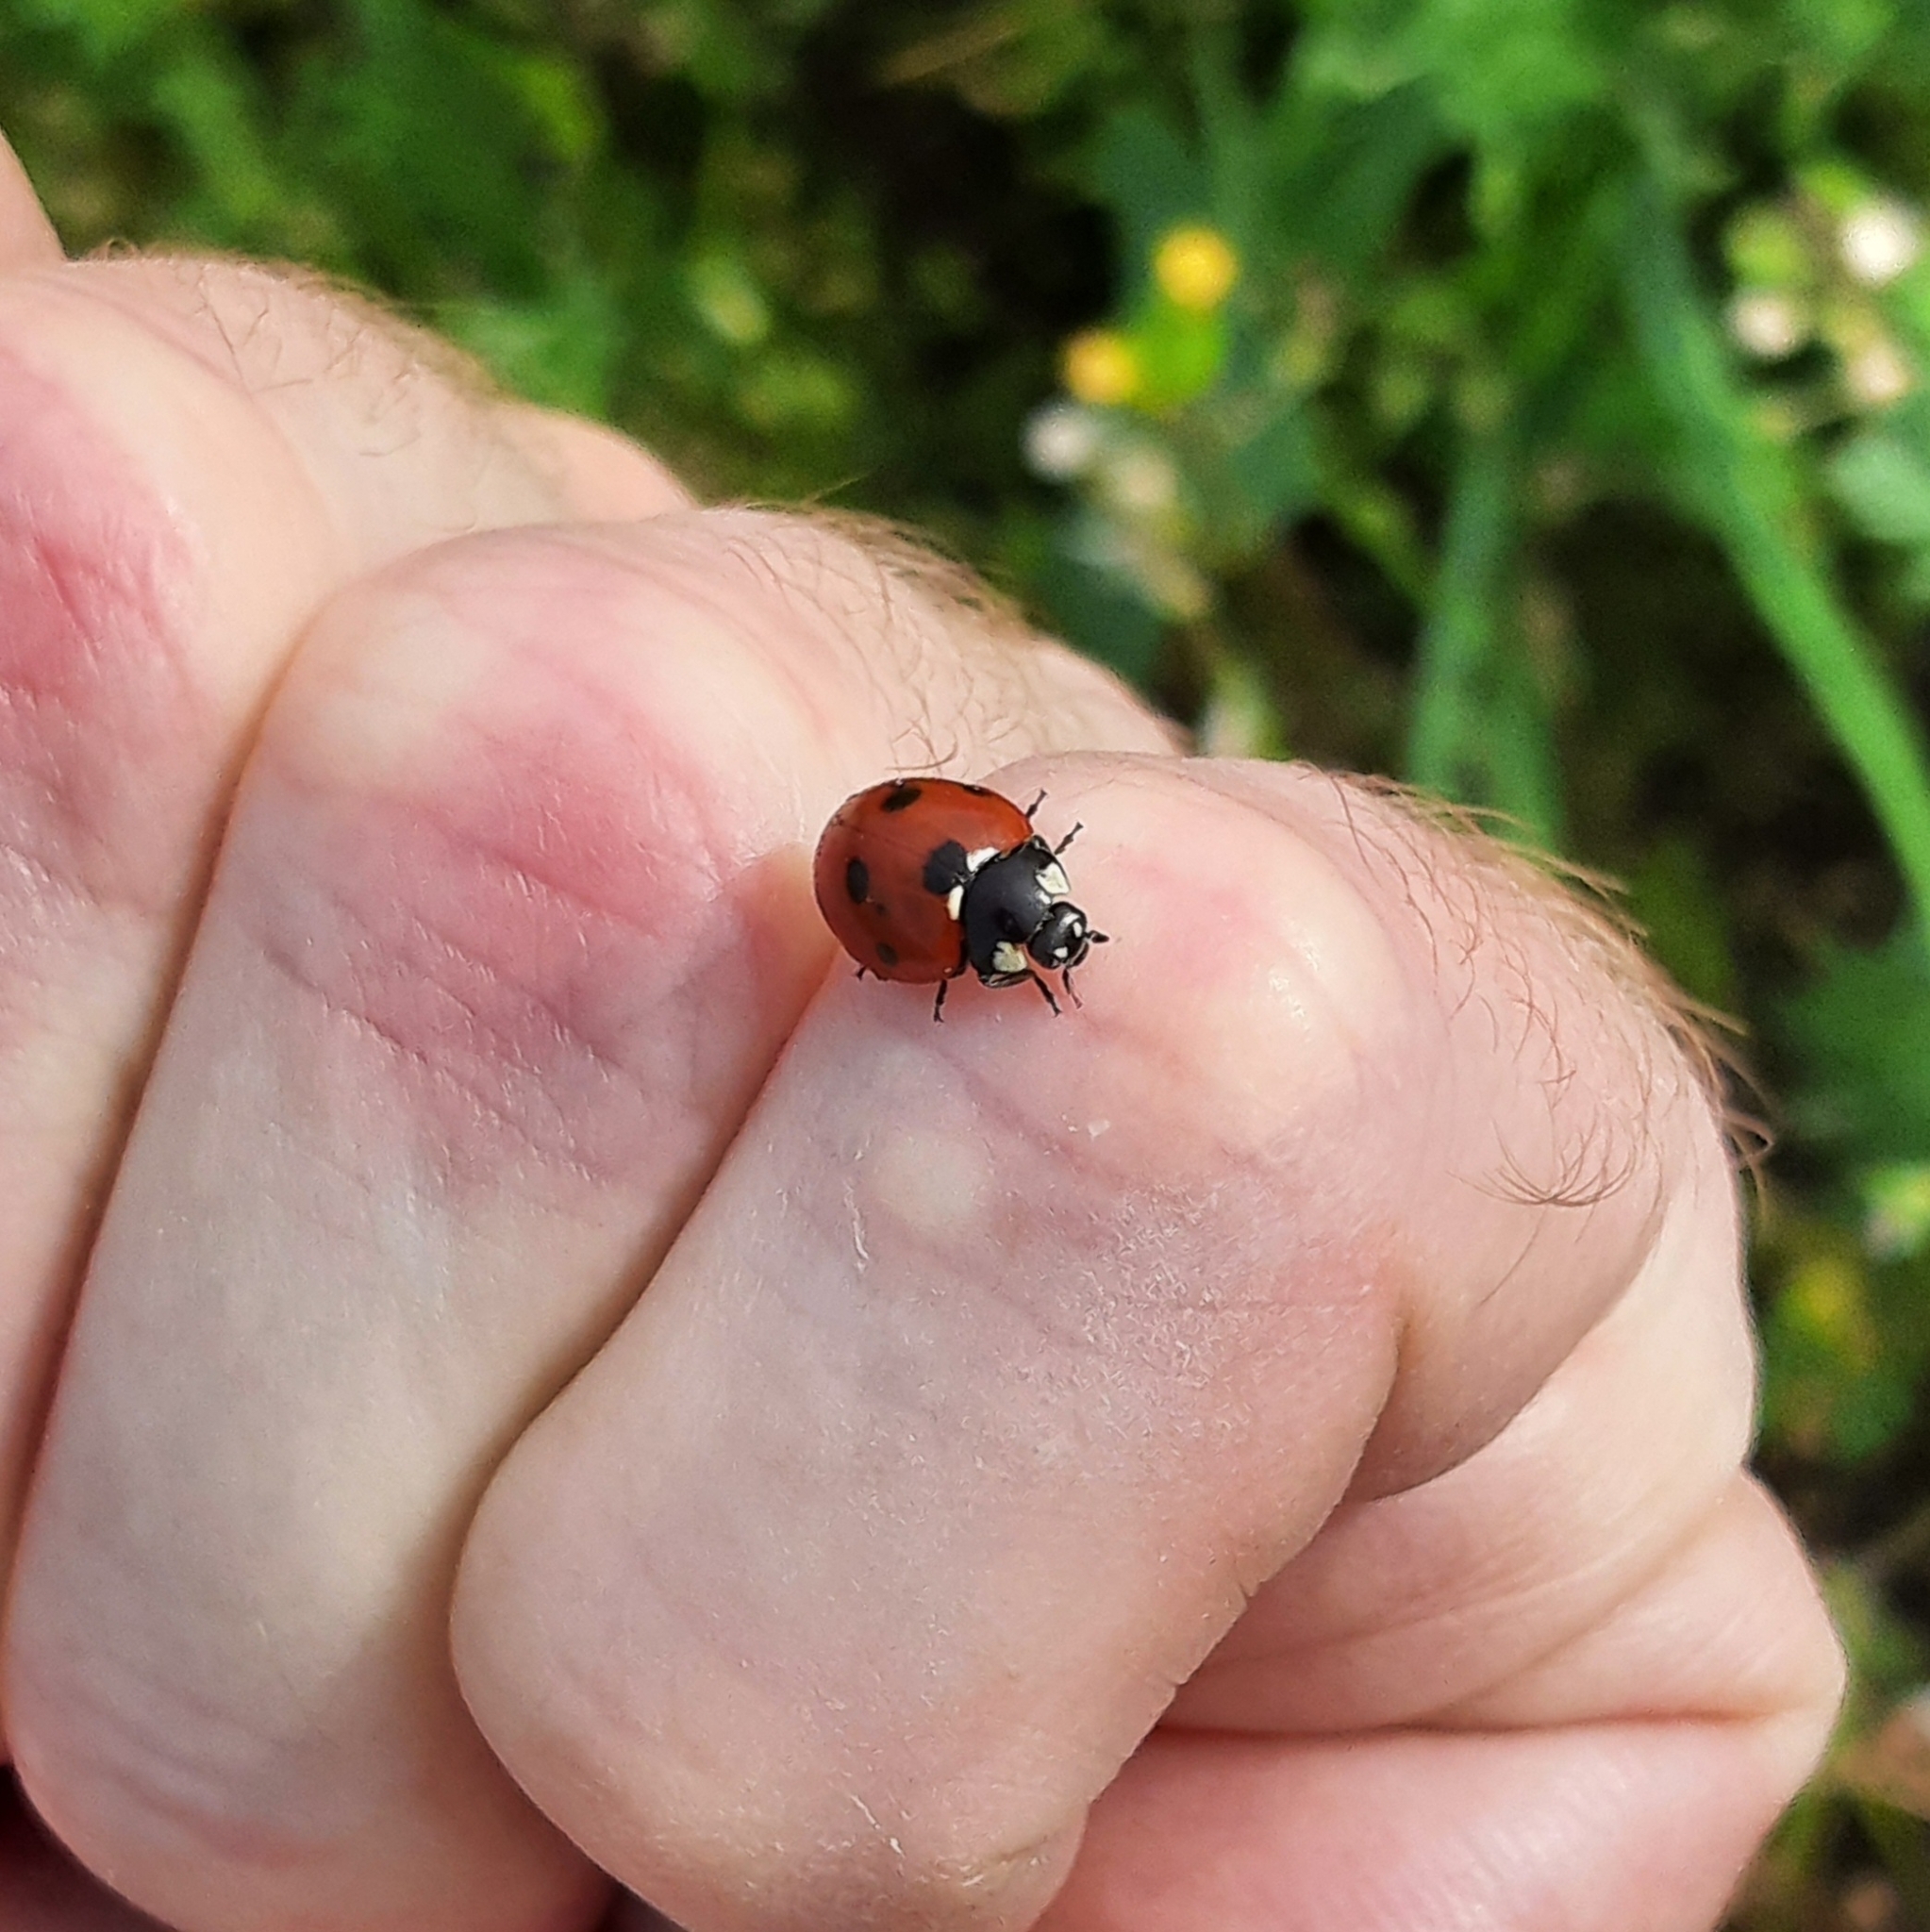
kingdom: Animalia
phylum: Arthropoda
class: Insecta
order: Coleoptera
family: Coccinellidae
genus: Coccinella
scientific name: Coccinella septempunctata
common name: Sevenspotted lady beetle
